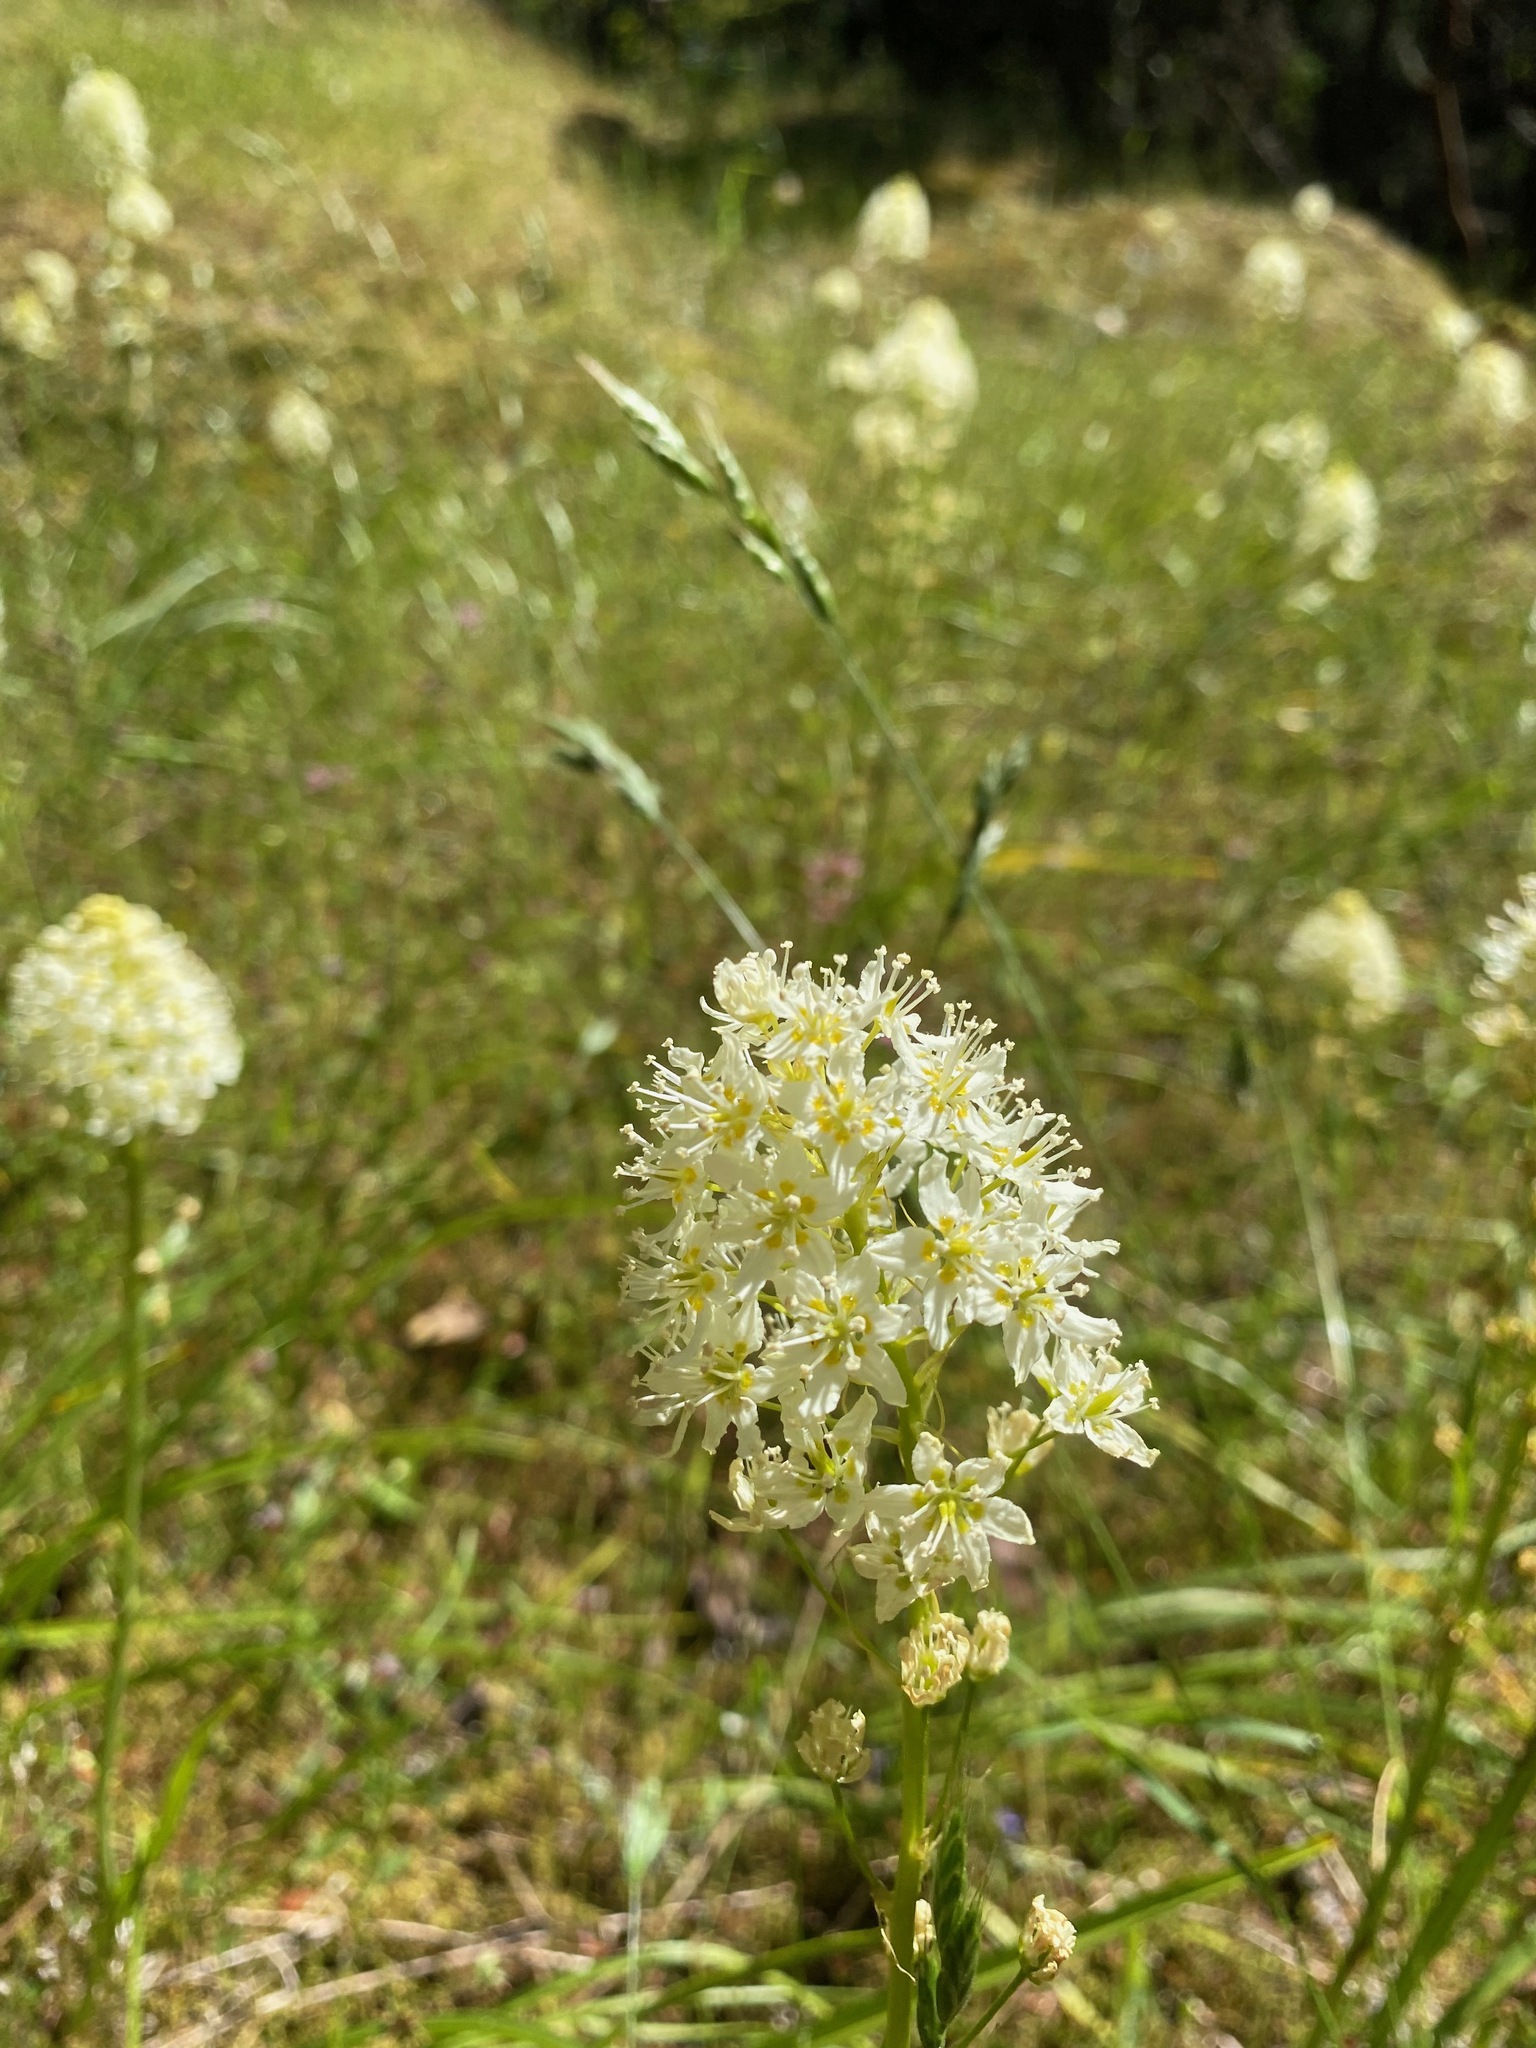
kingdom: Plantae
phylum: Tracheophyta
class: Liliopsida
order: Liliales
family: Melanthiaceae
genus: Toxicoscordion
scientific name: Toxicoscordion venenosum
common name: Meadow death camas
